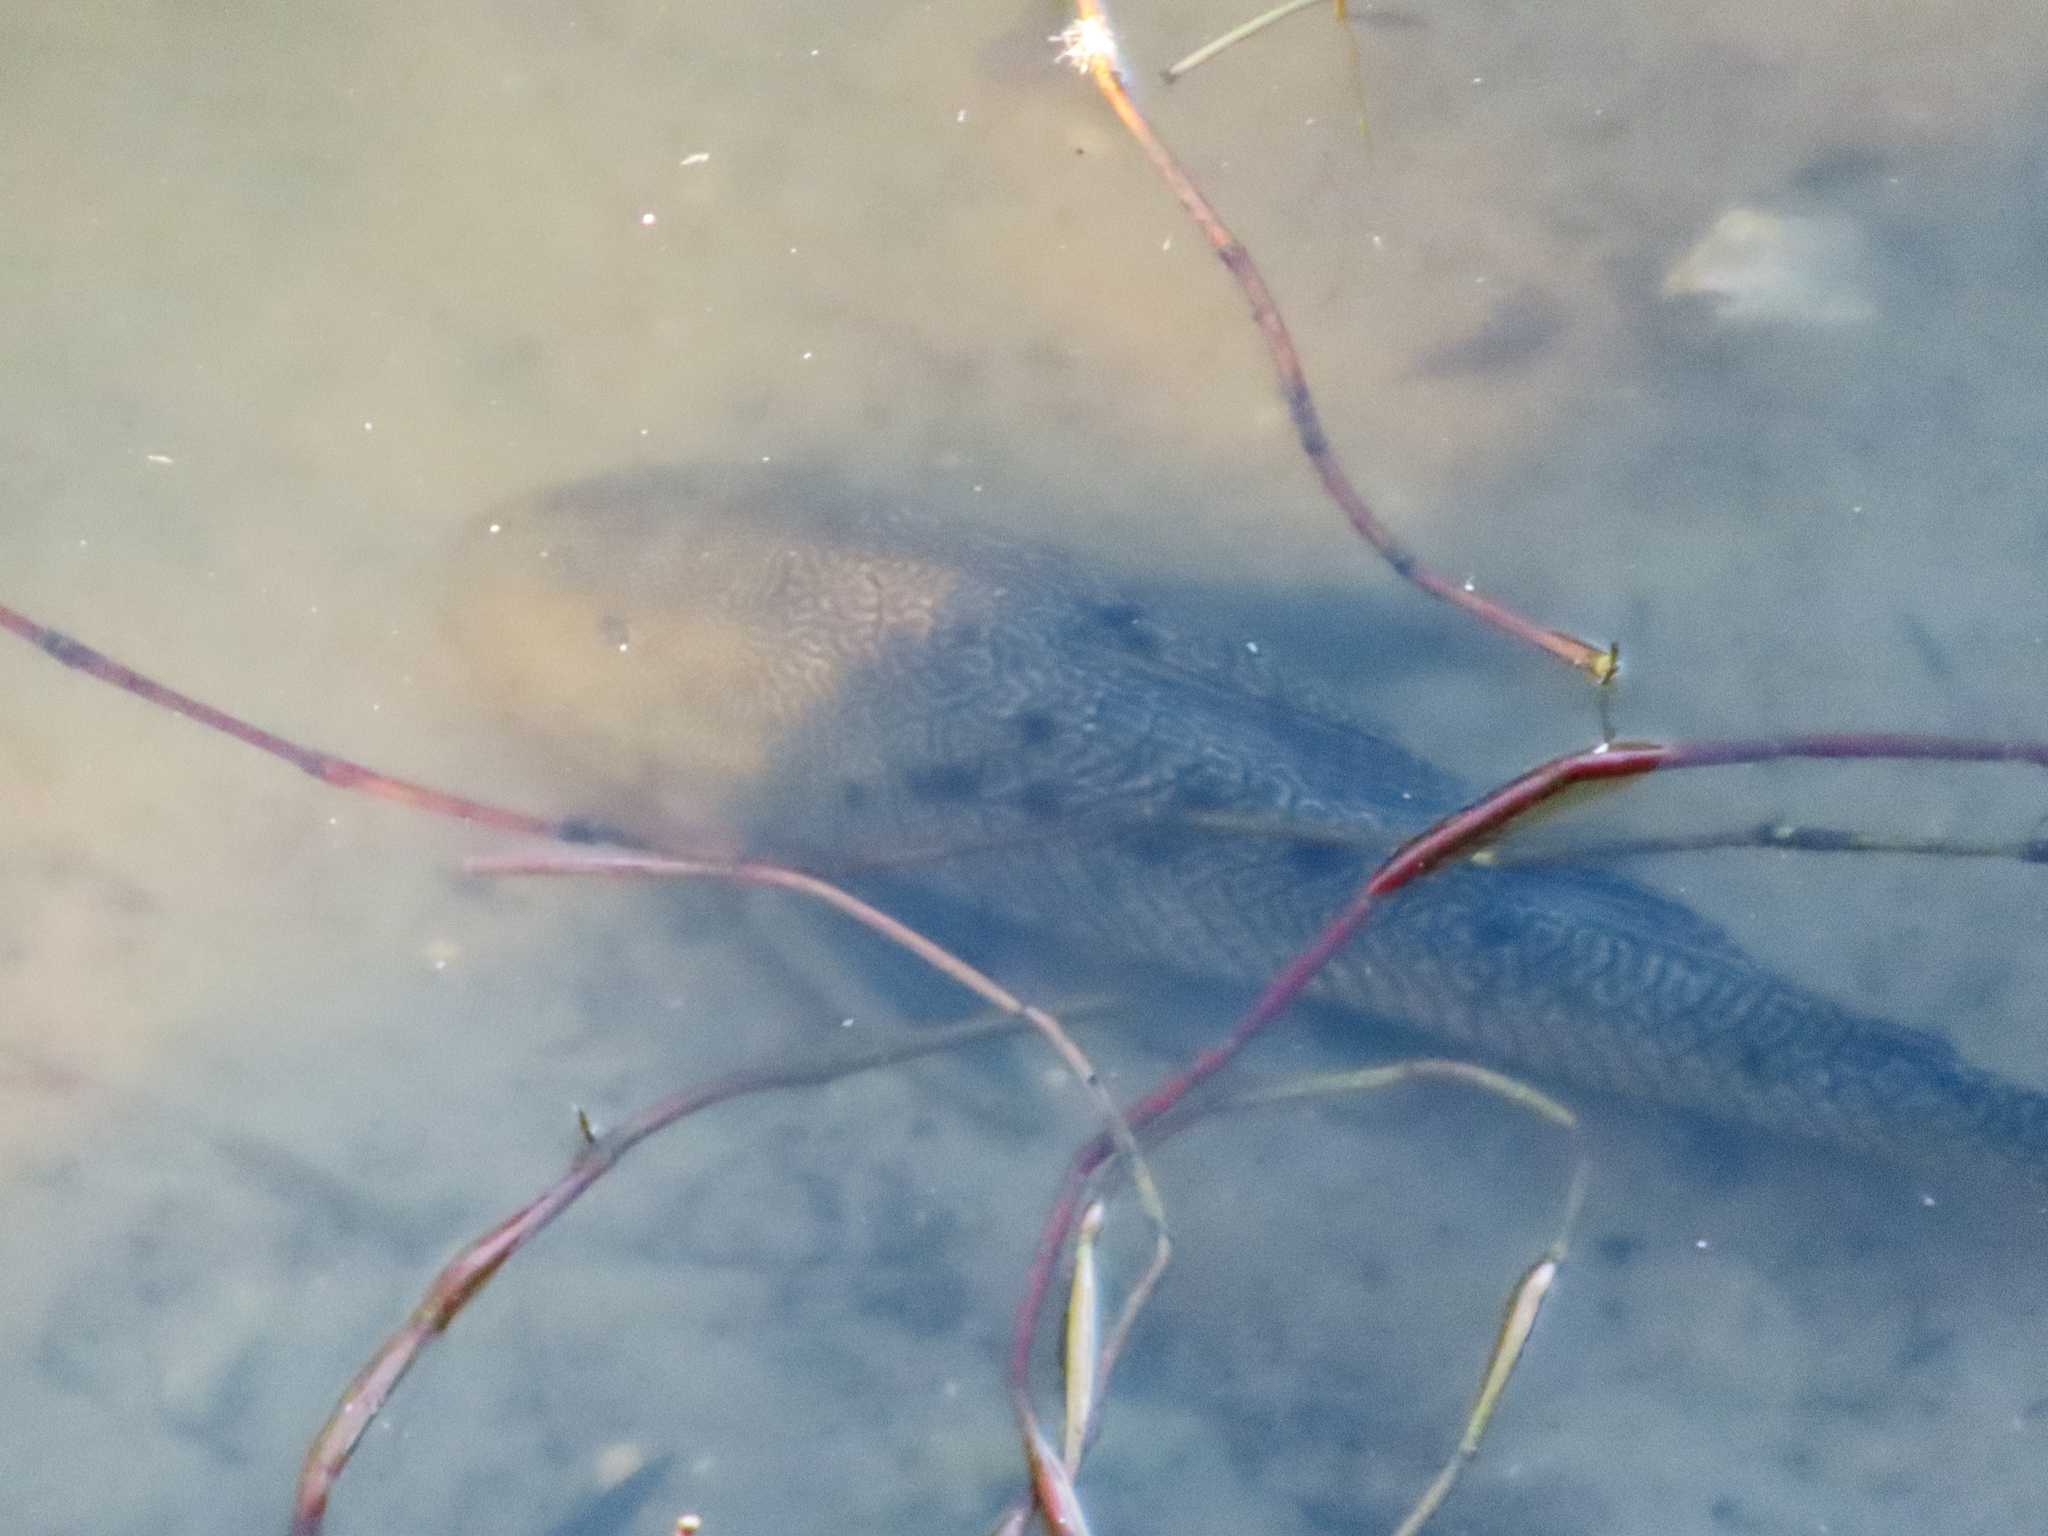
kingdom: Animalia
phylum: Chordata
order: Siluriformes
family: Loricariidae
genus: Pterygoplichthys
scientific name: Pterygoplichthys
